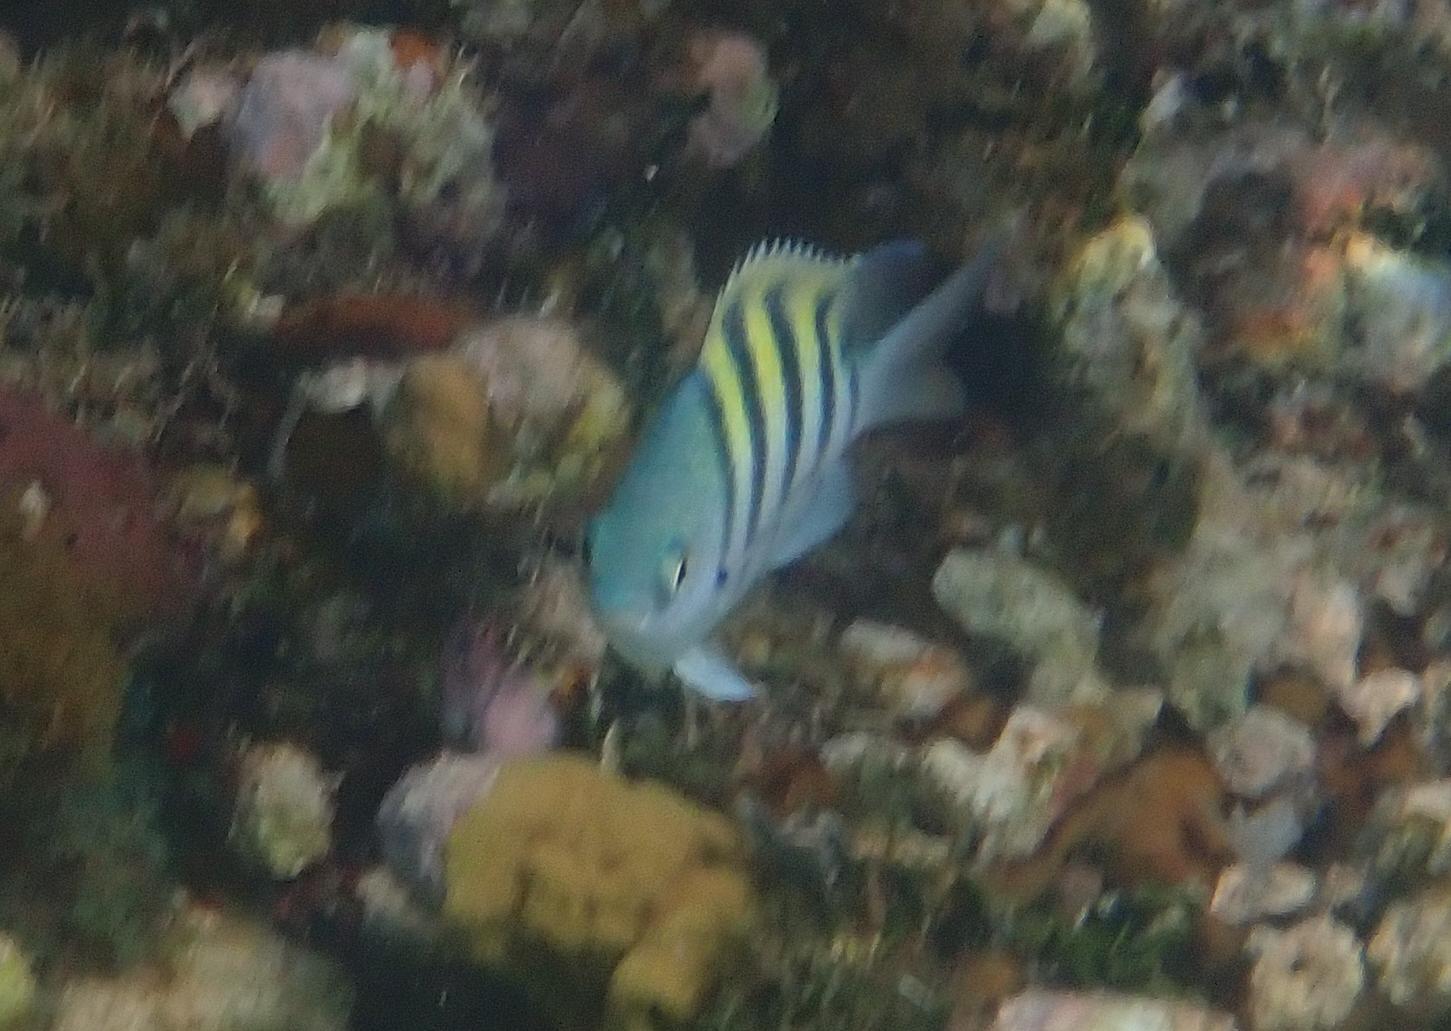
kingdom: Animalia
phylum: Chordata
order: Perciformes
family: Pomacentridae
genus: Abudefduf
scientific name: Abudefduf saxatilis
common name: Sergeant major
